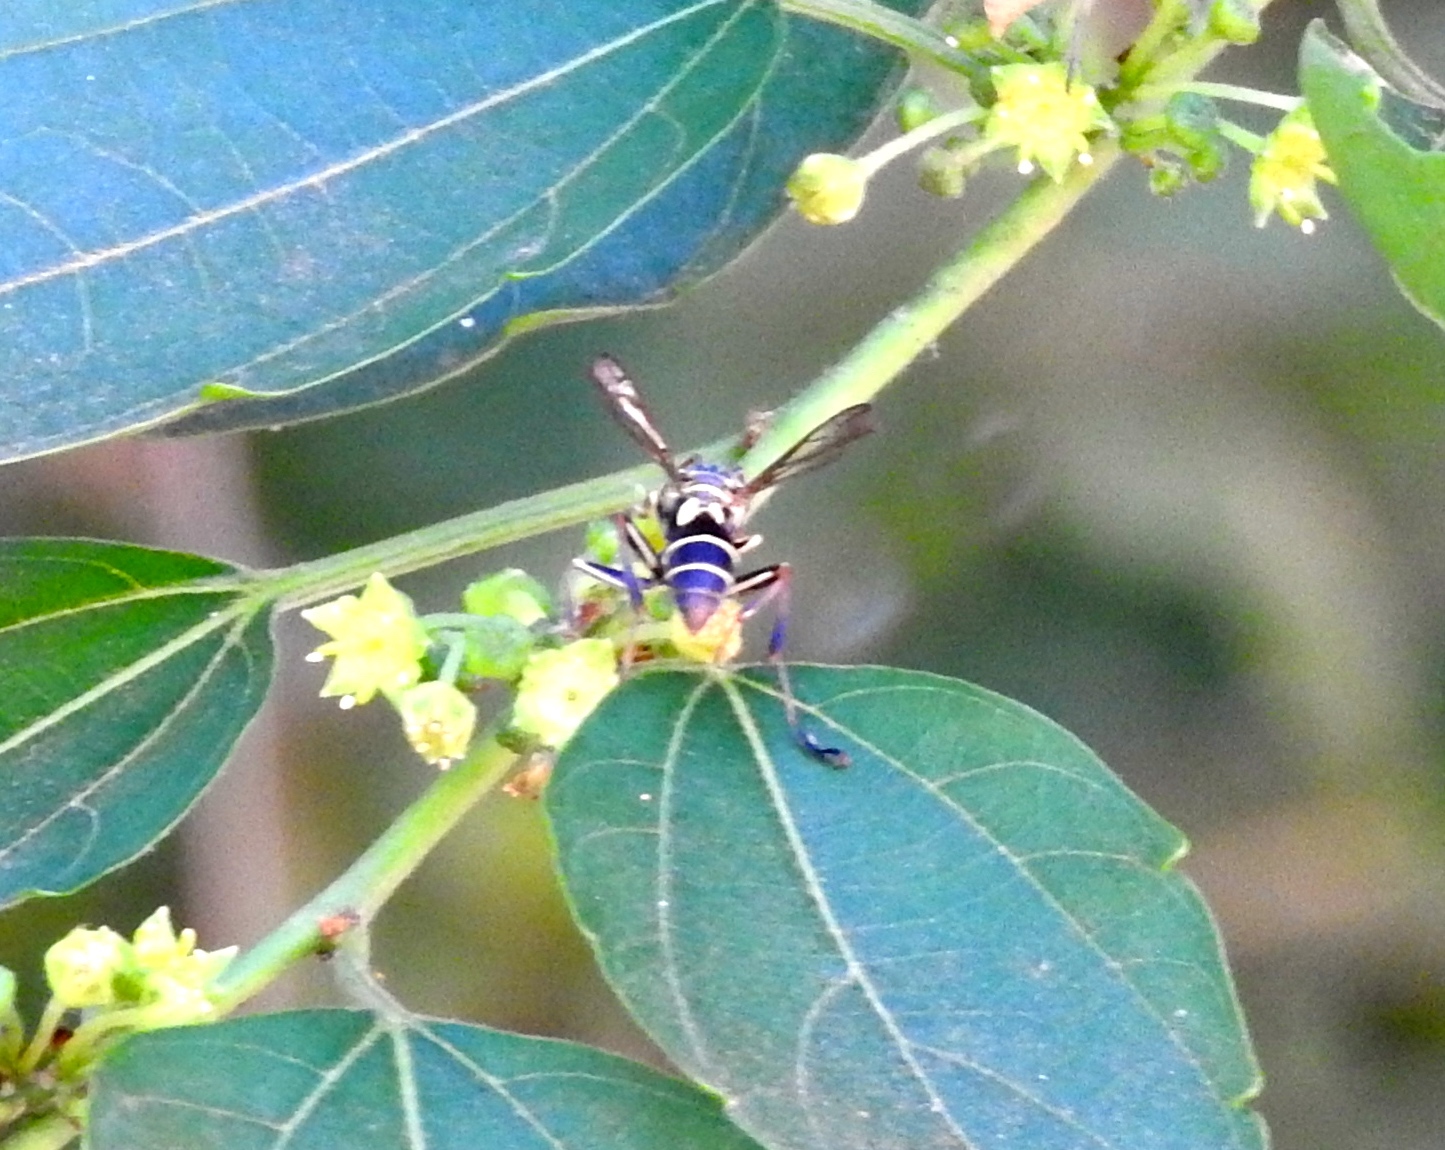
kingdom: Animalia
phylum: Arthropoda
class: Insecta
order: Hymenoptera
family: Vespidae
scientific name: Vespidae
